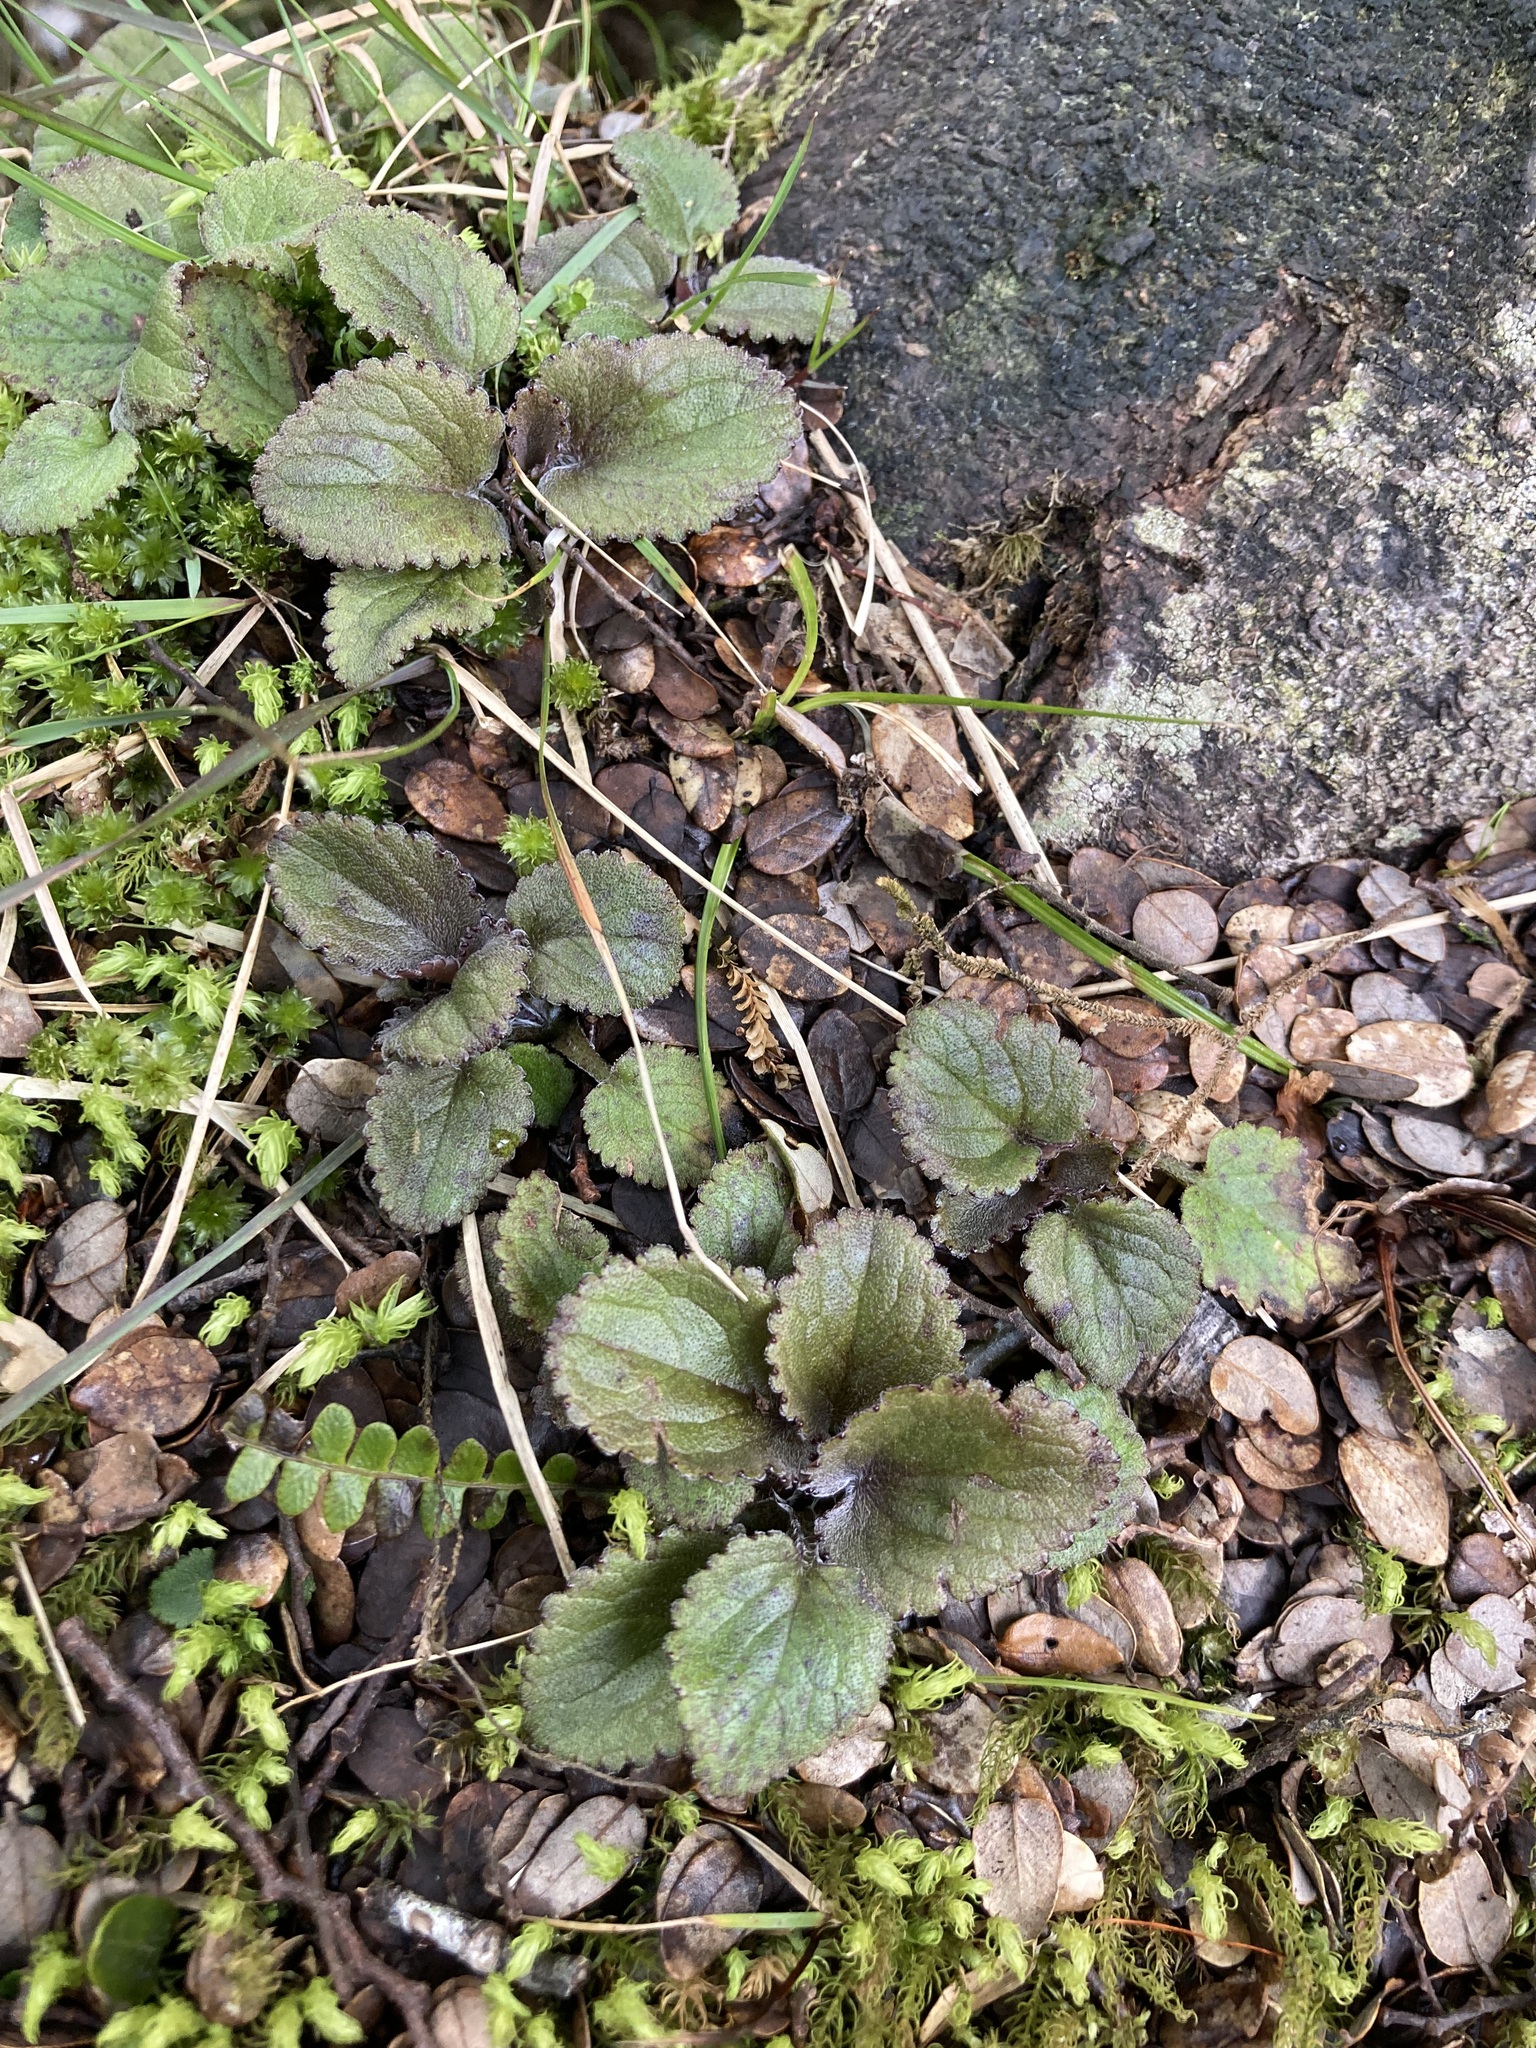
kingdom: Plantae
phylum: Tracheophyta
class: Magnoliopsida
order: Lamiales
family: Plantaginaceae
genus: Ourisia
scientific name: Ourisia macrophylla
